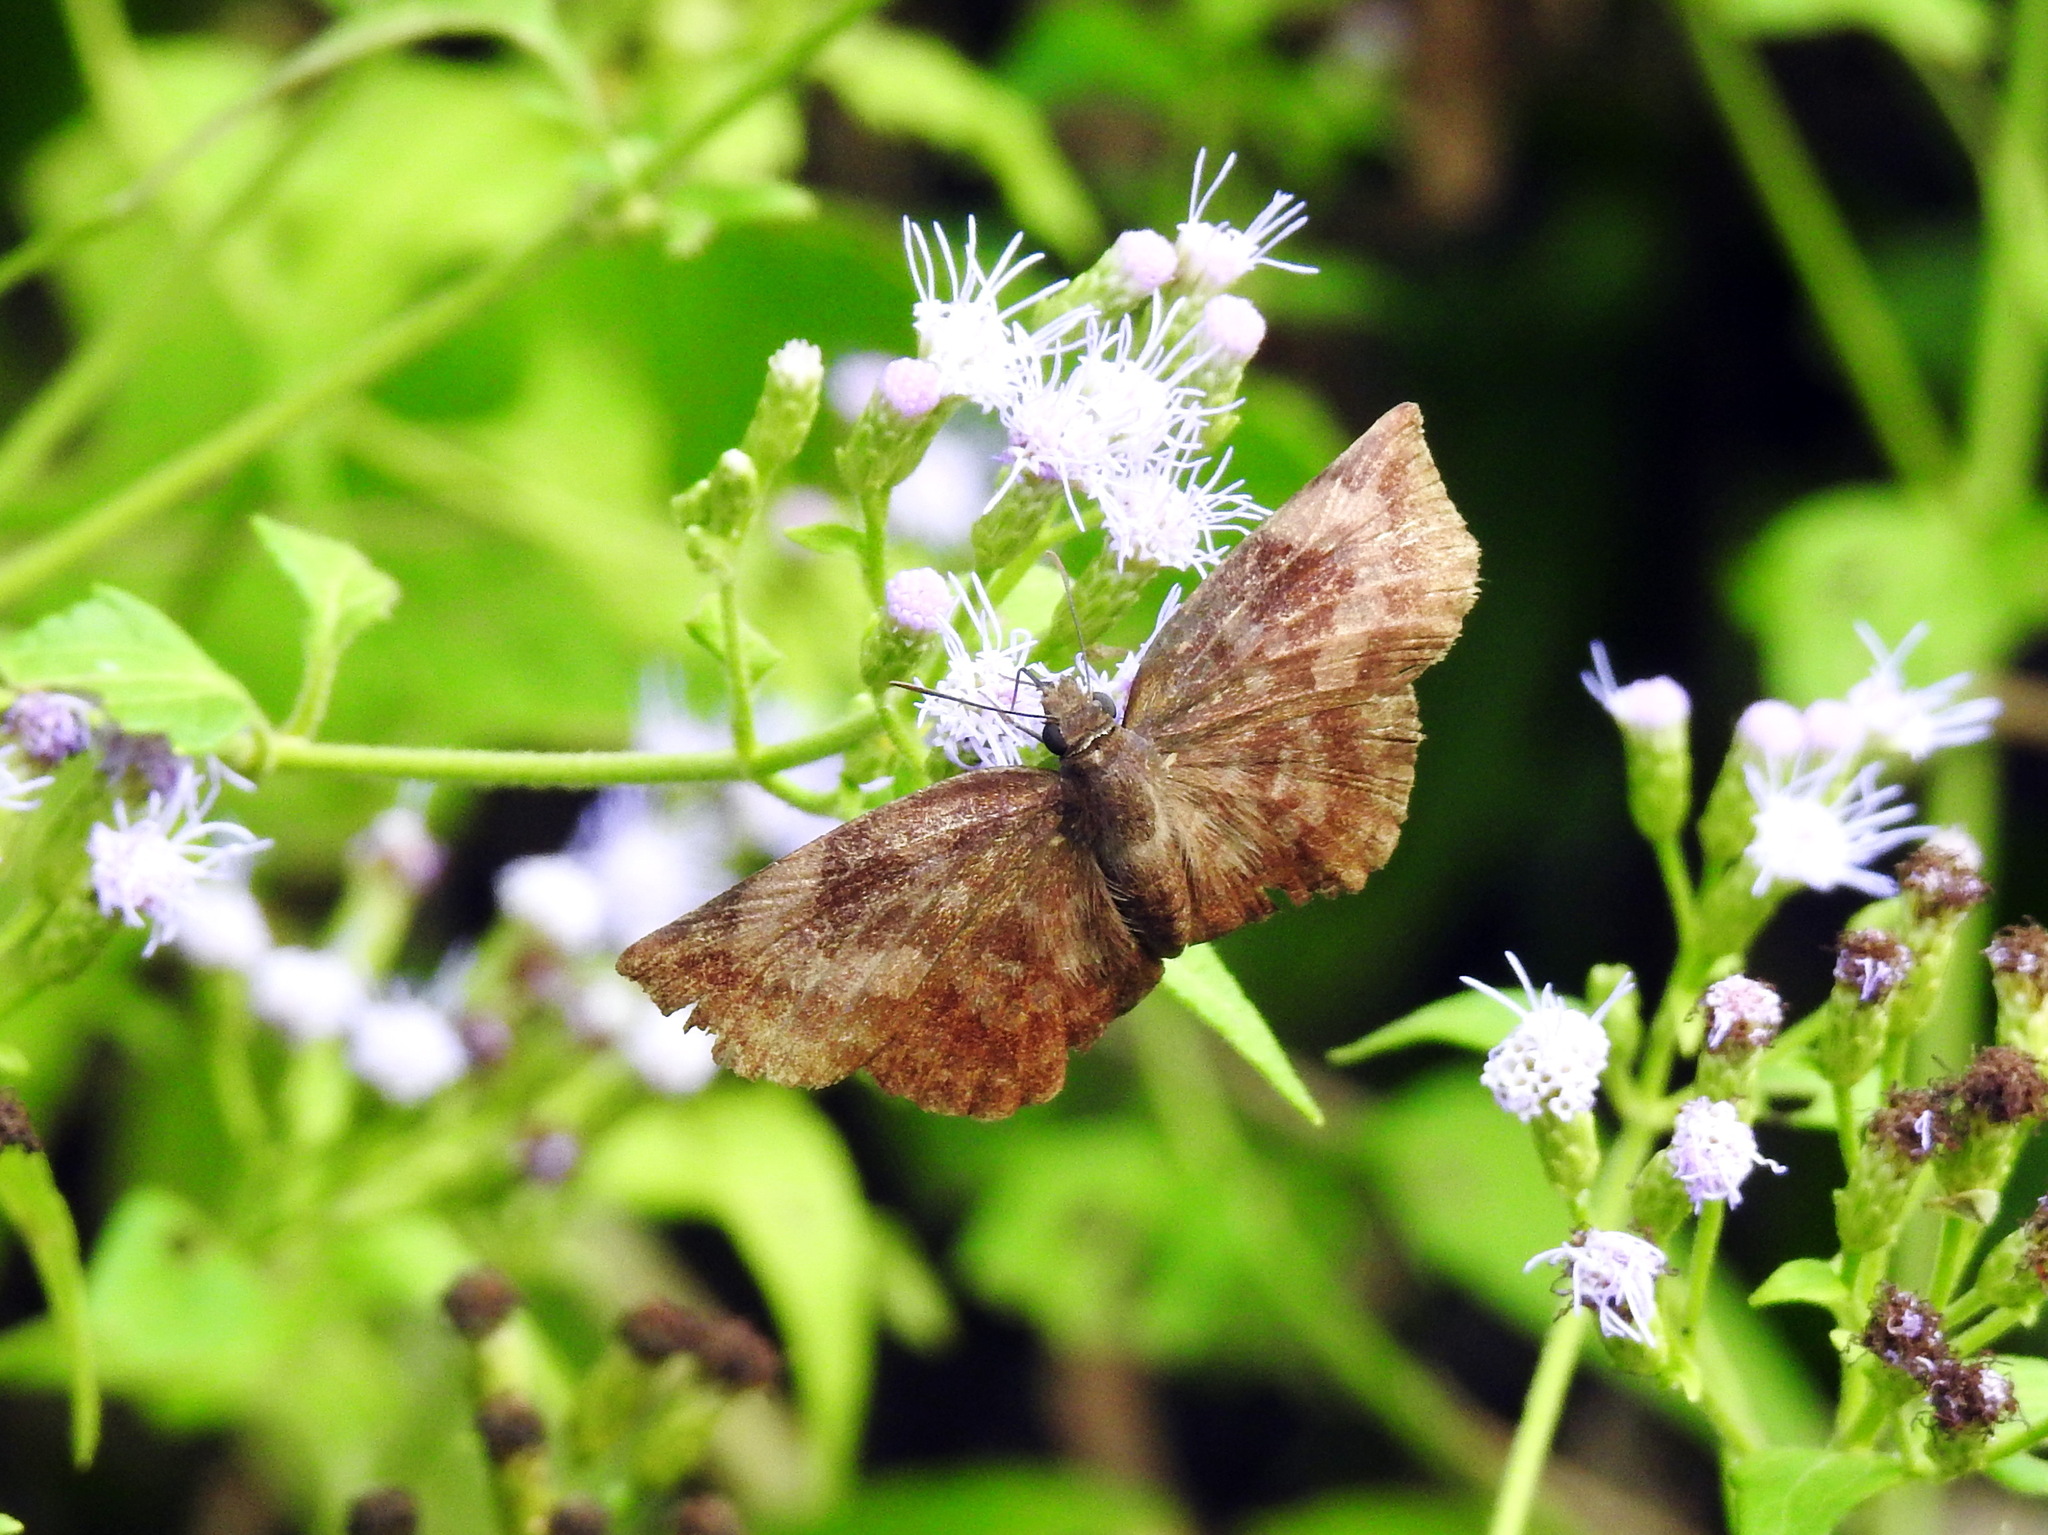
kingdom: Animalia
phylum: Arthropoda
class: Insecta
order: Lepidoptera
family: Hesperiidae
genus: Achlyodes
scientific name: Achlyodes thraso
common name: Sickle-winged skipper
